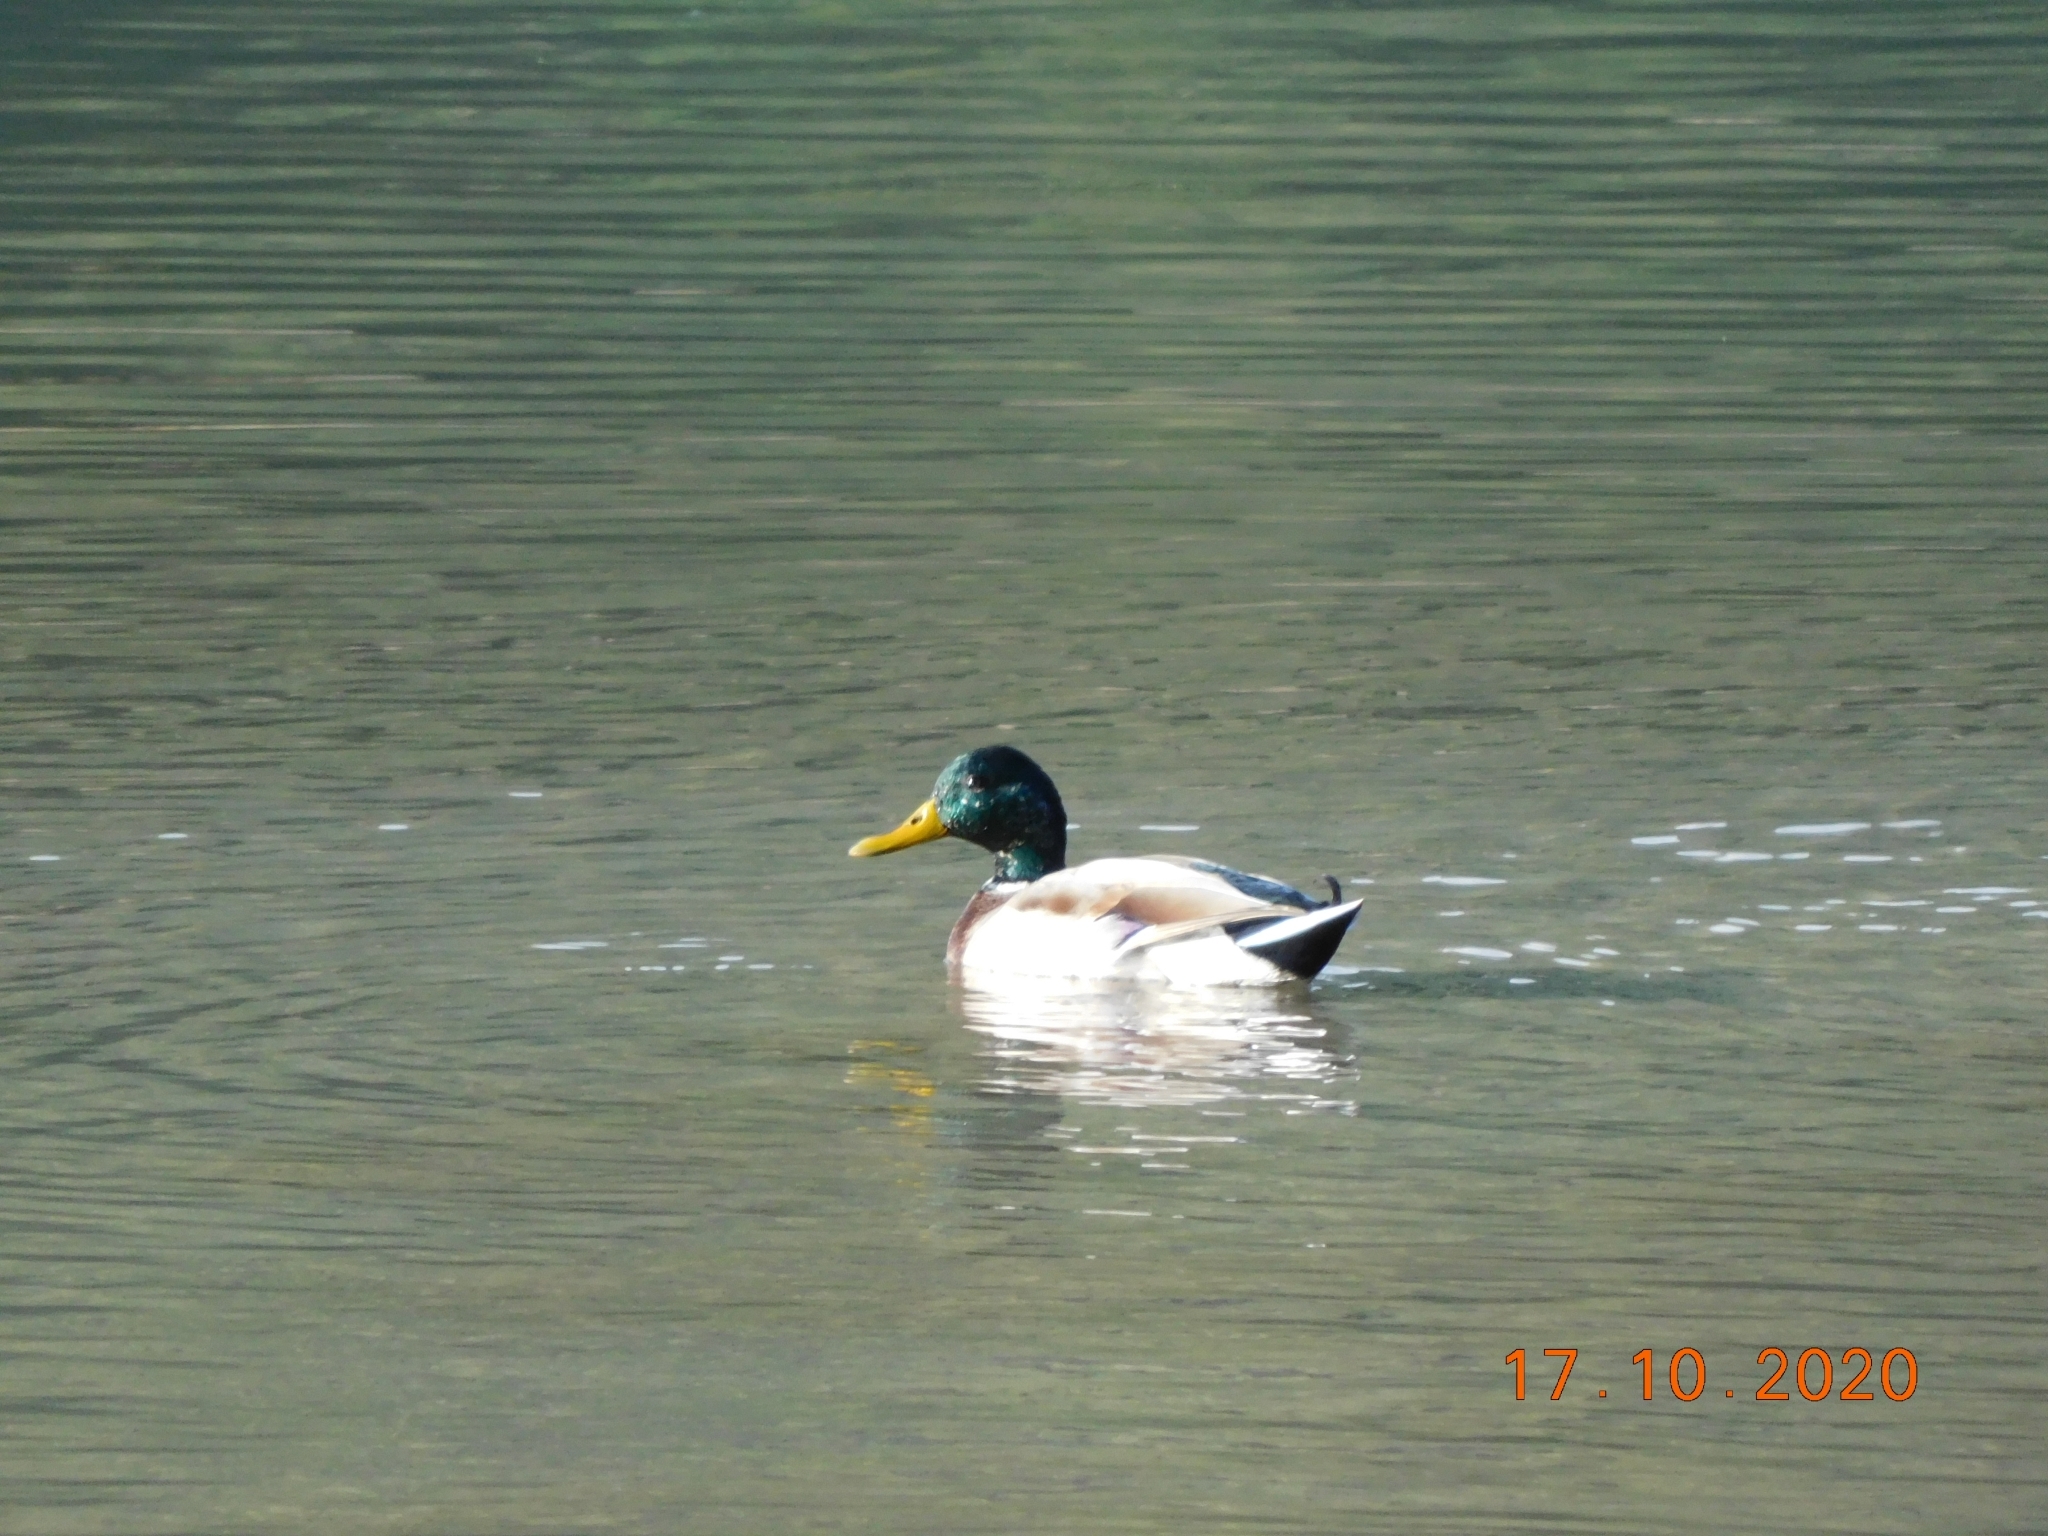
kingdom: Animalia
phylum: Chordata
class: Aves
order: Anseriformes
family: Anatidae
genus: Anas
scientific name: Anas platyrhynchos
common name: Mallard
